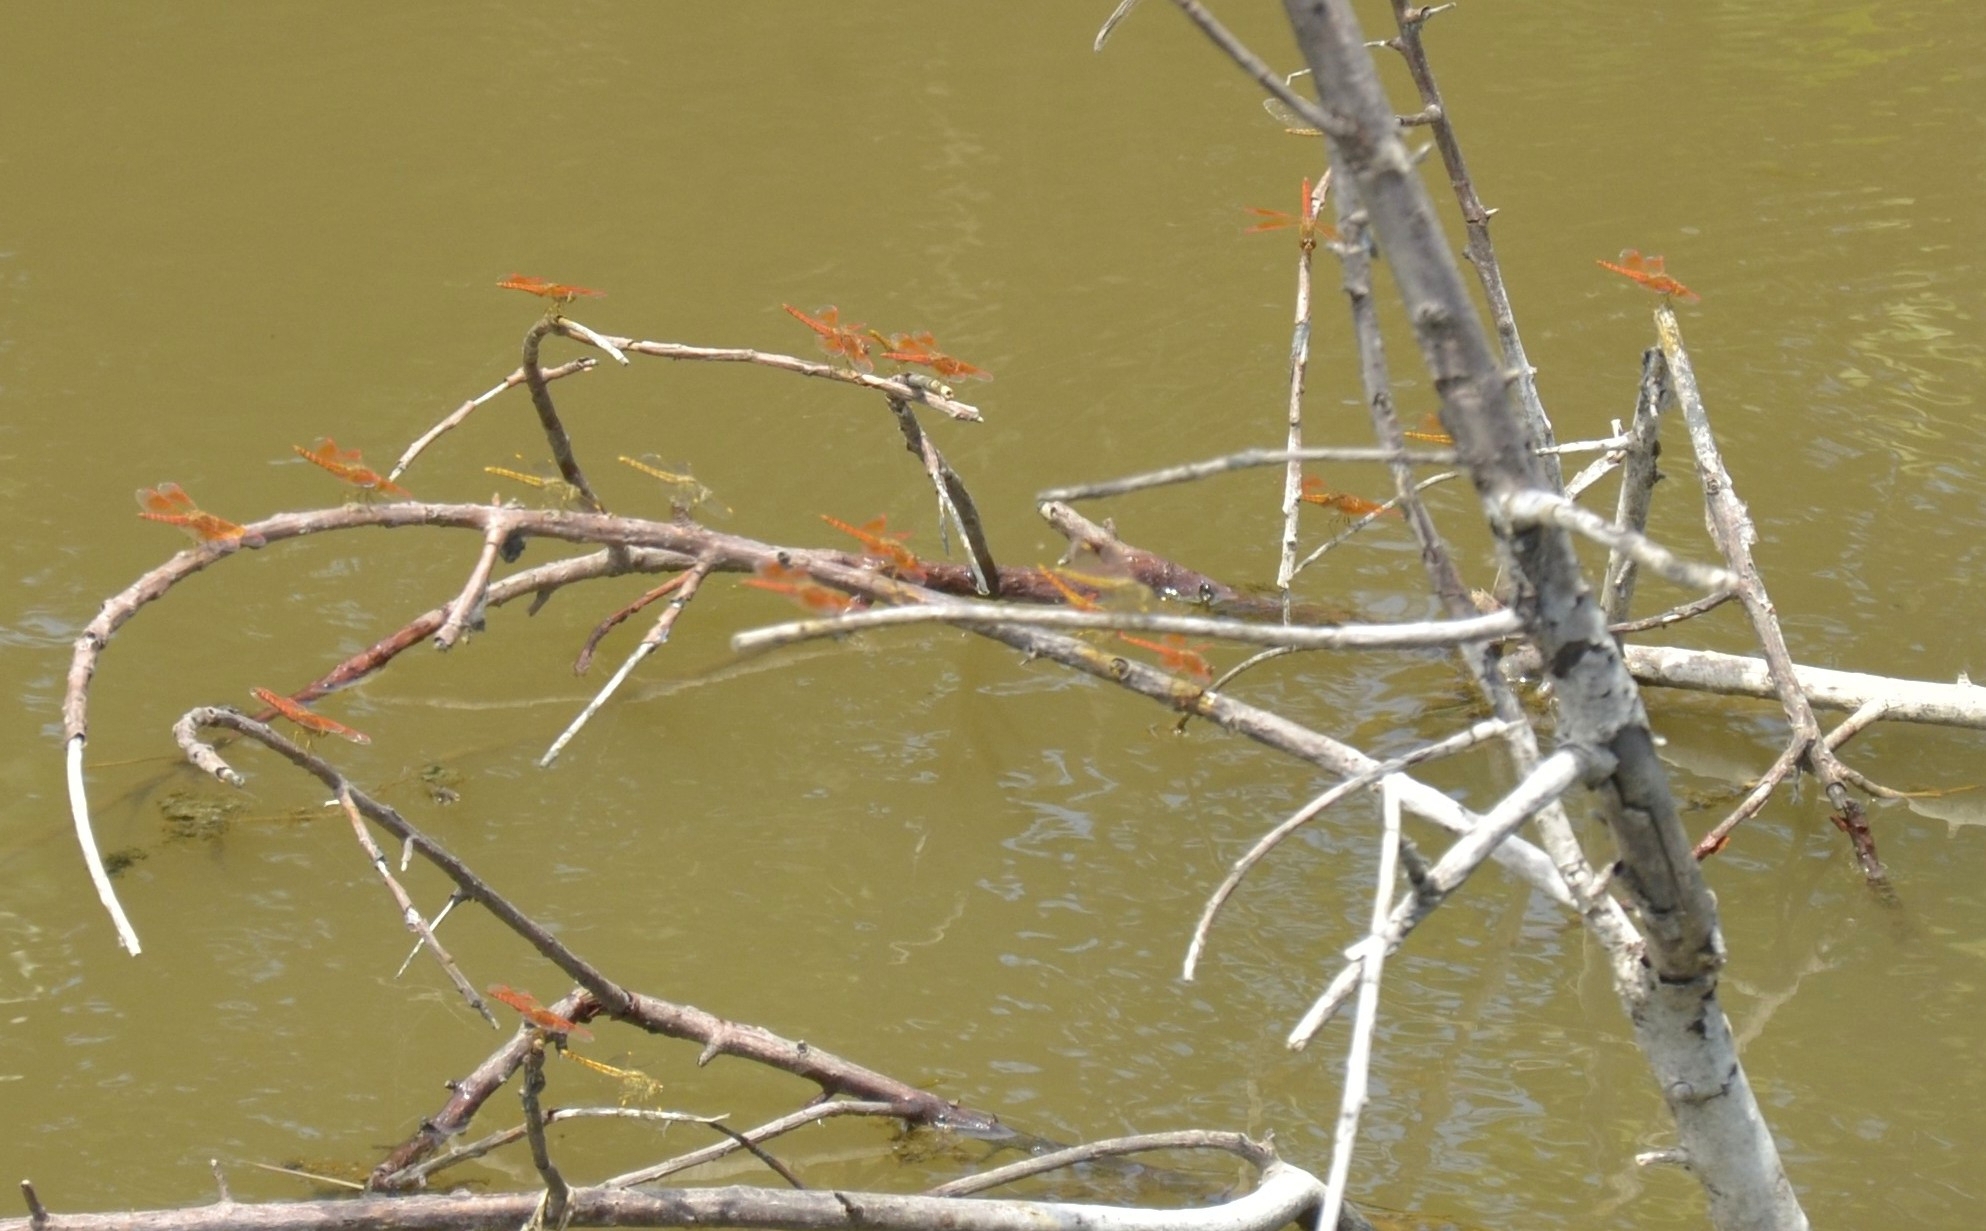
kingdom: Animalia
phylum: Arthropoda
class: Insecta
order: Odonata
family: Libellulidae
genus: Brachythemis
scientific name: Brachythemis contaminata
